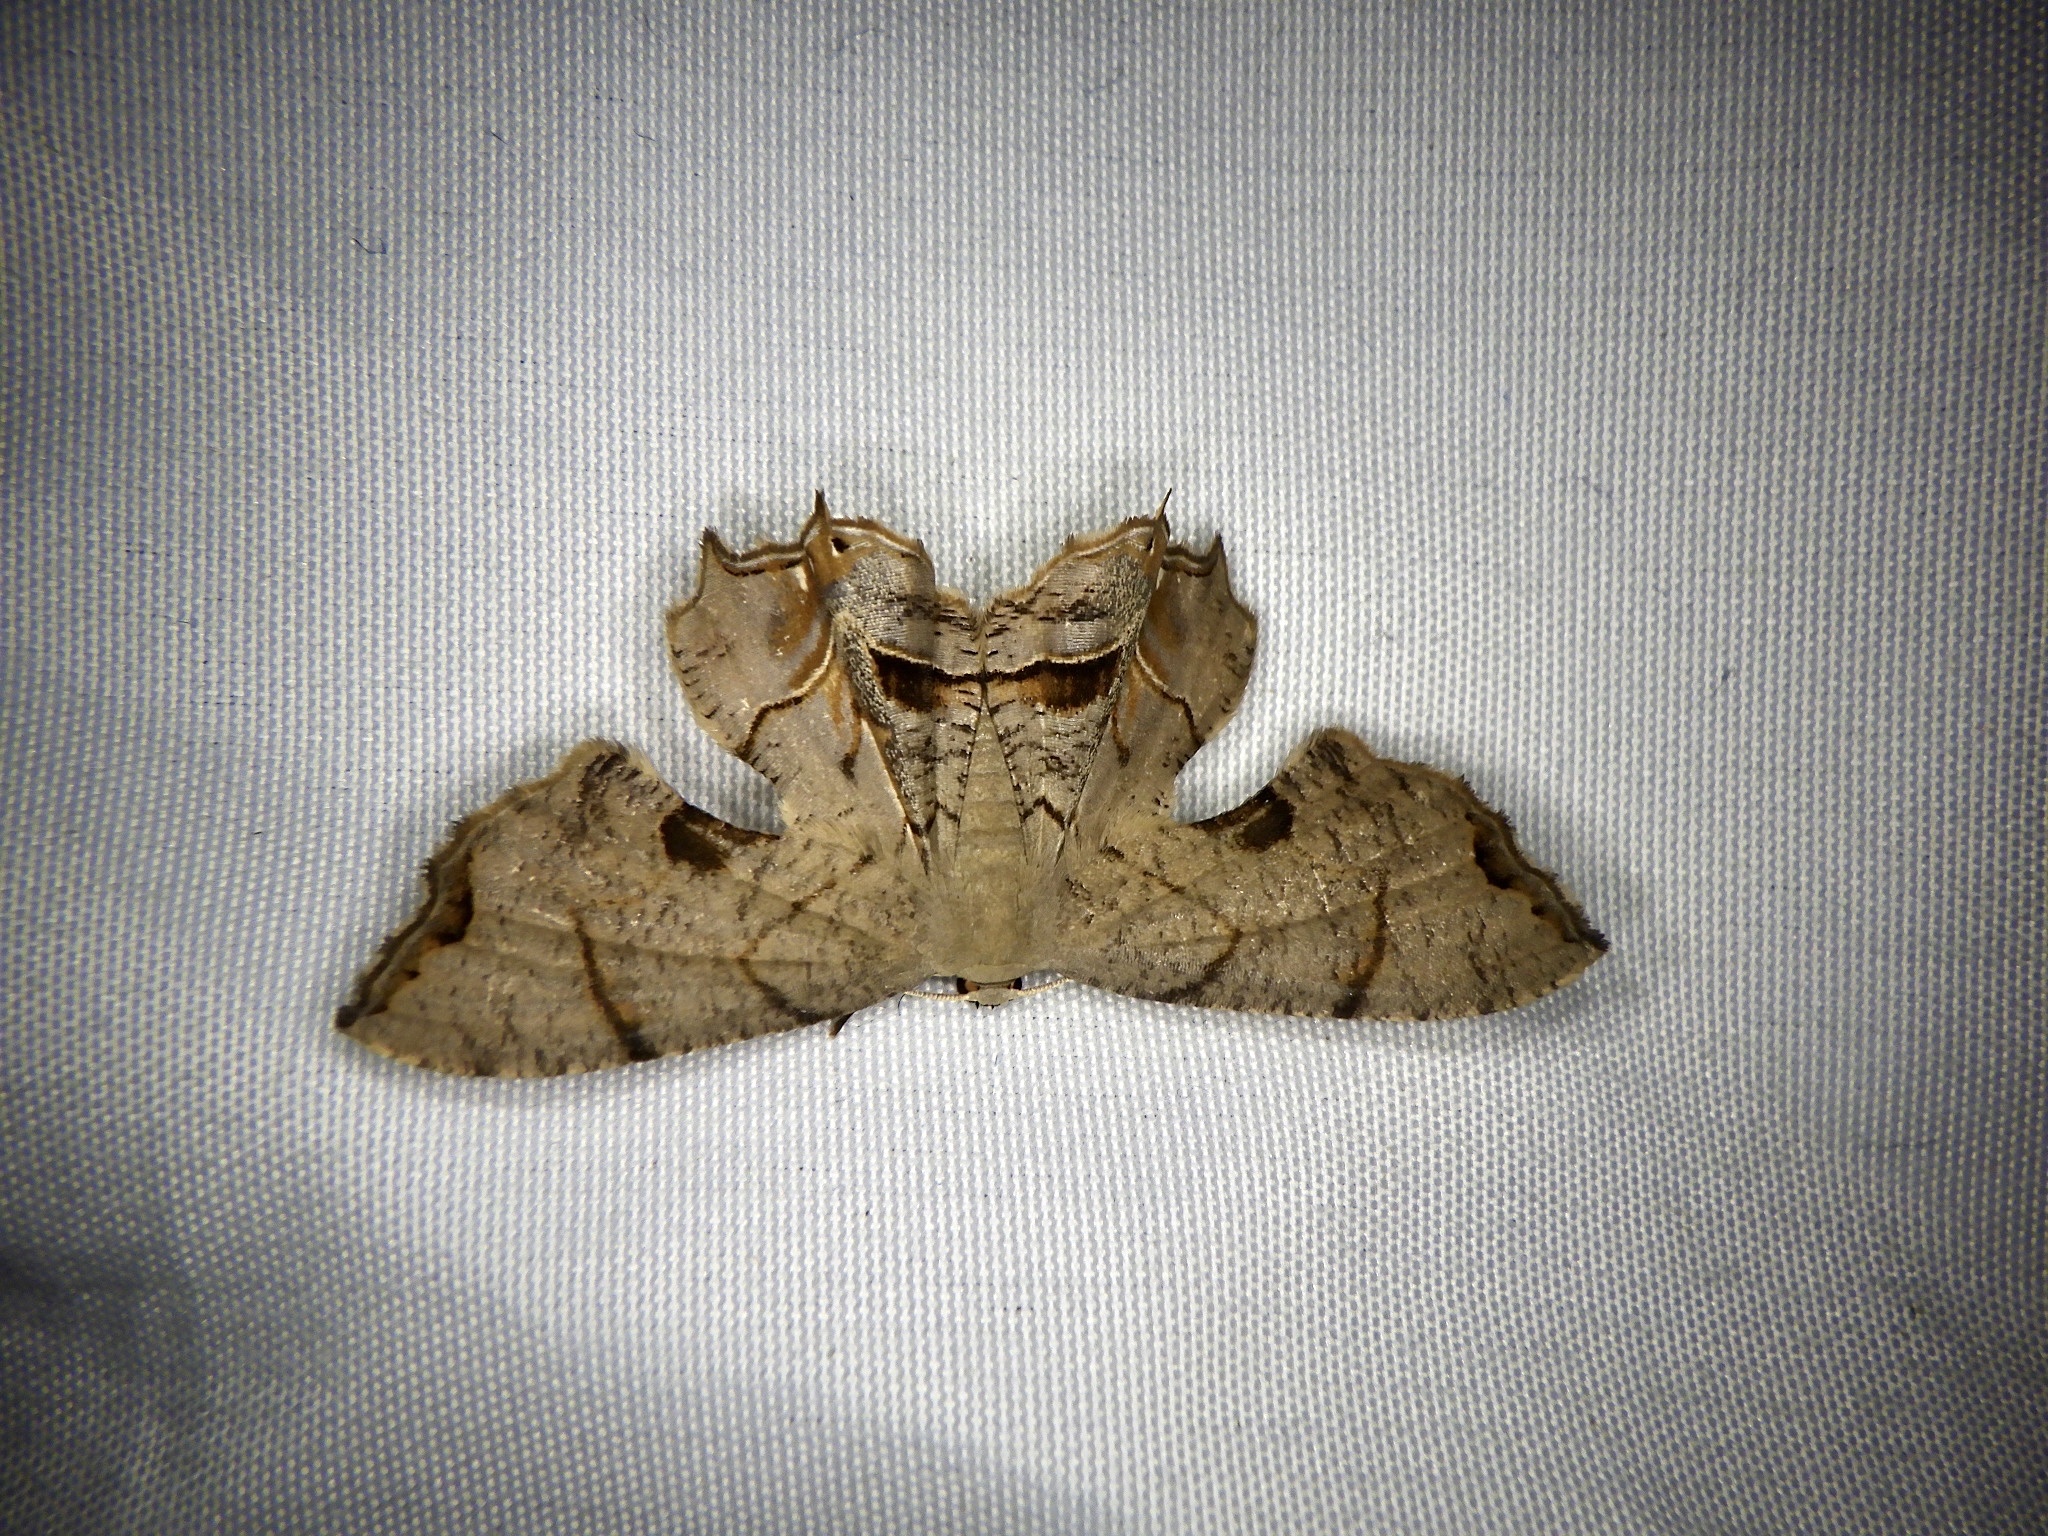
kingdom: Animalia
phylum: Arthropoda
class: Insecta
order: Lepidoptera
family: Uraniidae
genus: Dysaethria
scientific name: Dysaethria moza
